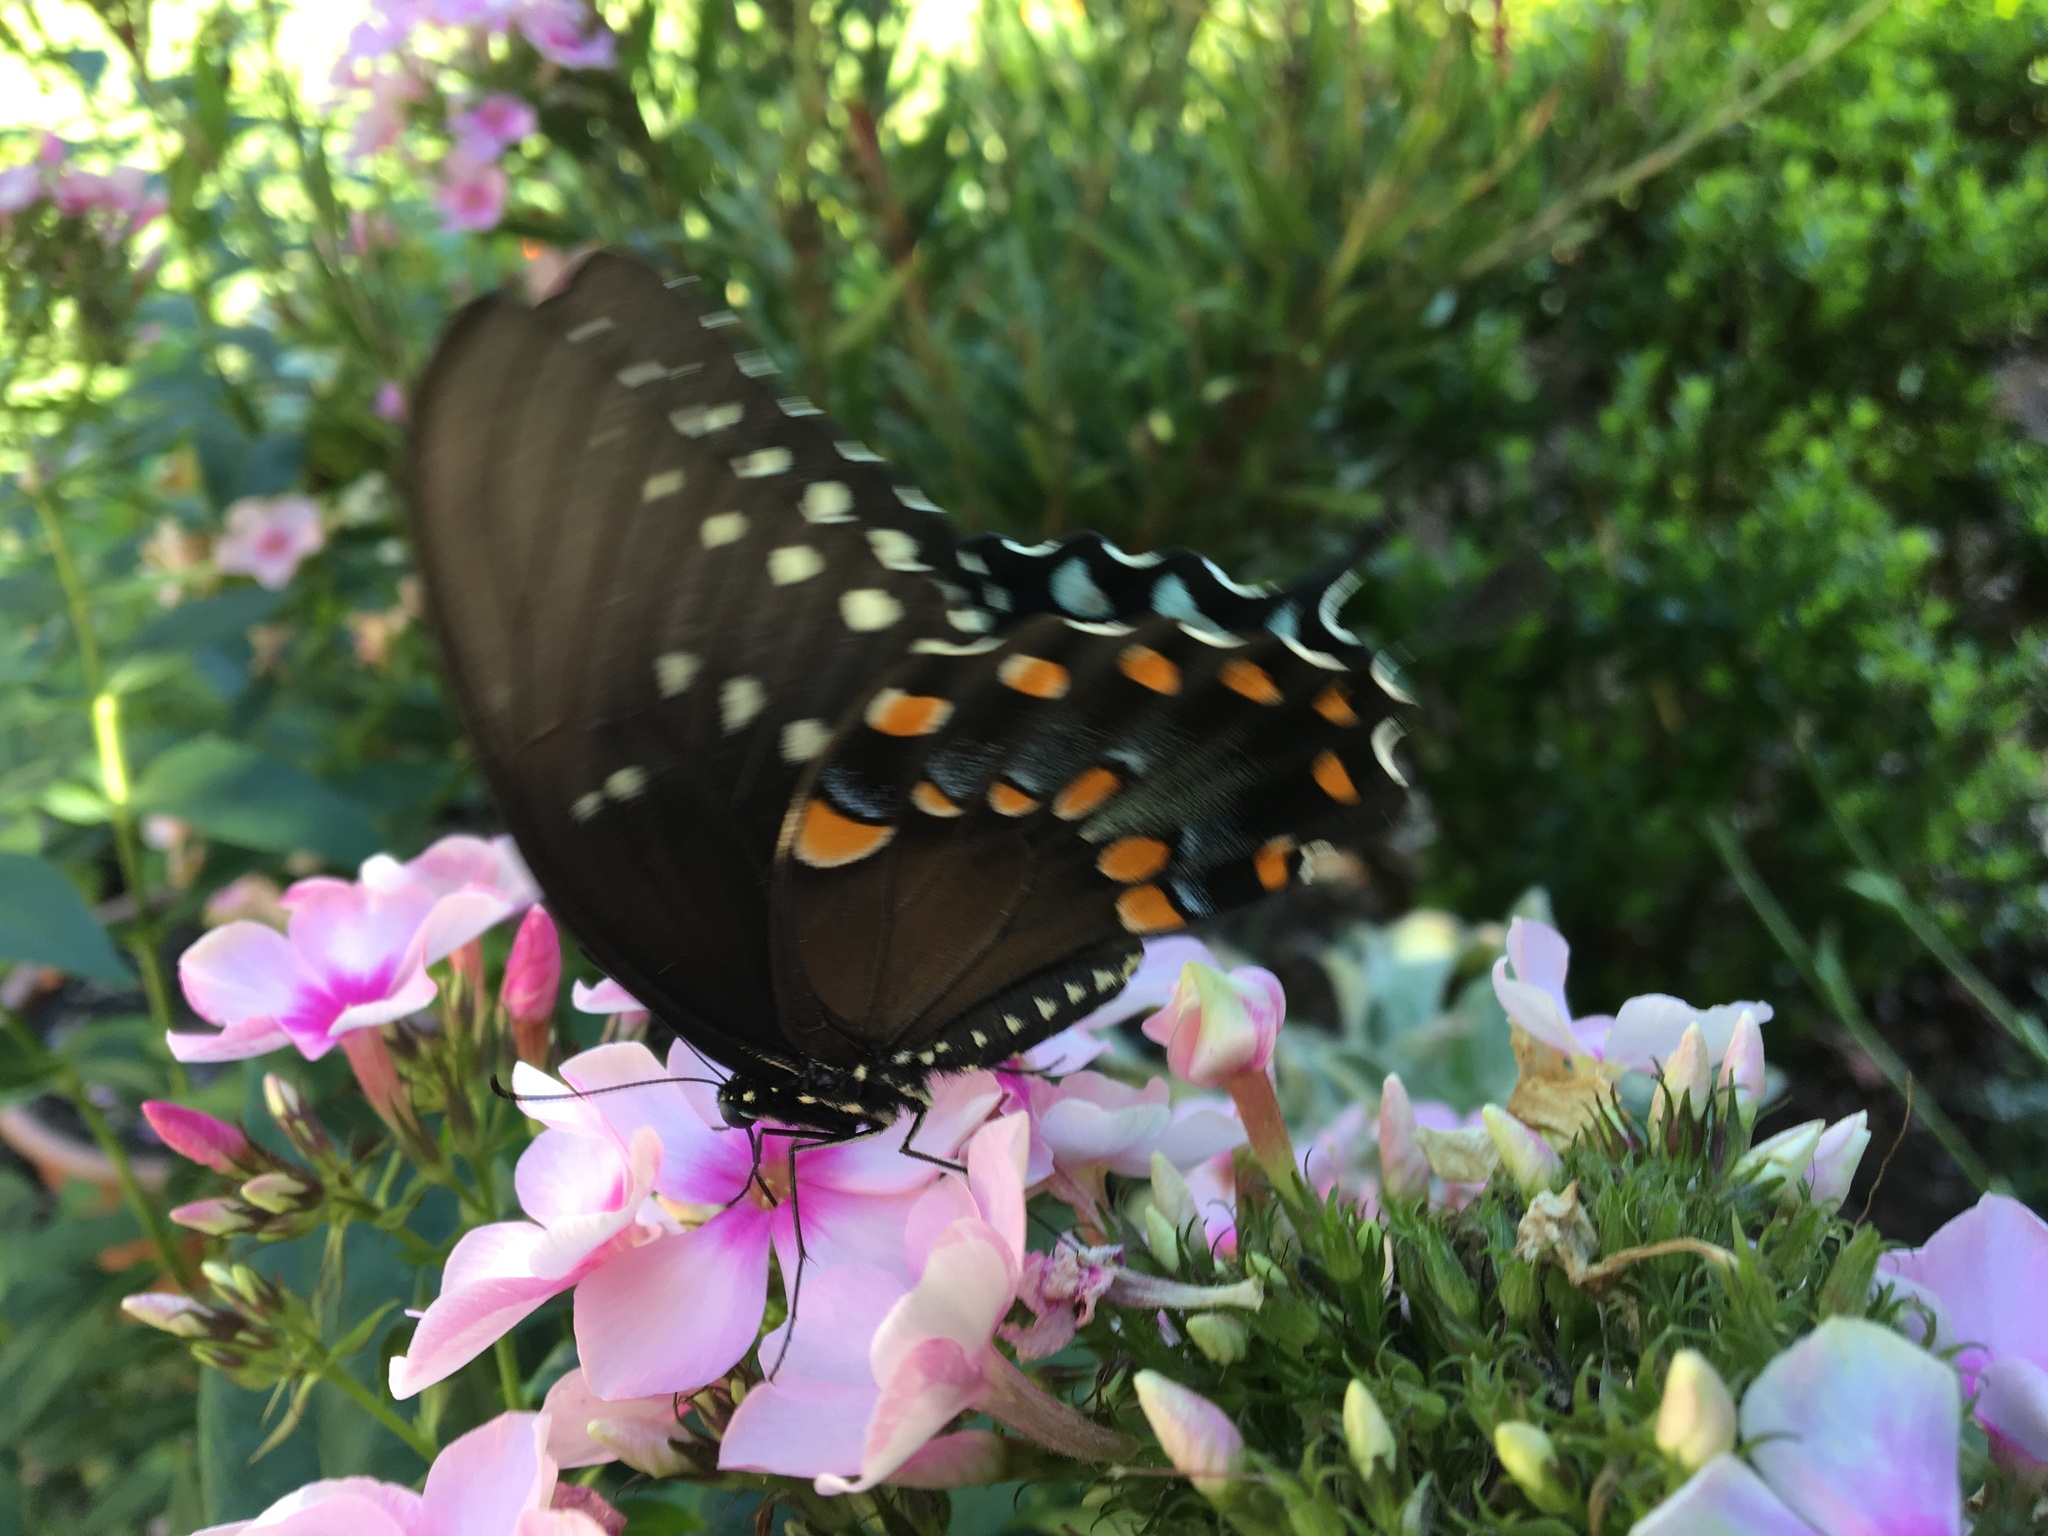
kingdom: Animalia
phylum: Arthropoda
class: Insecta
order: Lepidoptera
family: Papilionidae
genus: Papilio
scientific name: Papilio troilus
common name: Spicebush swallowtail
